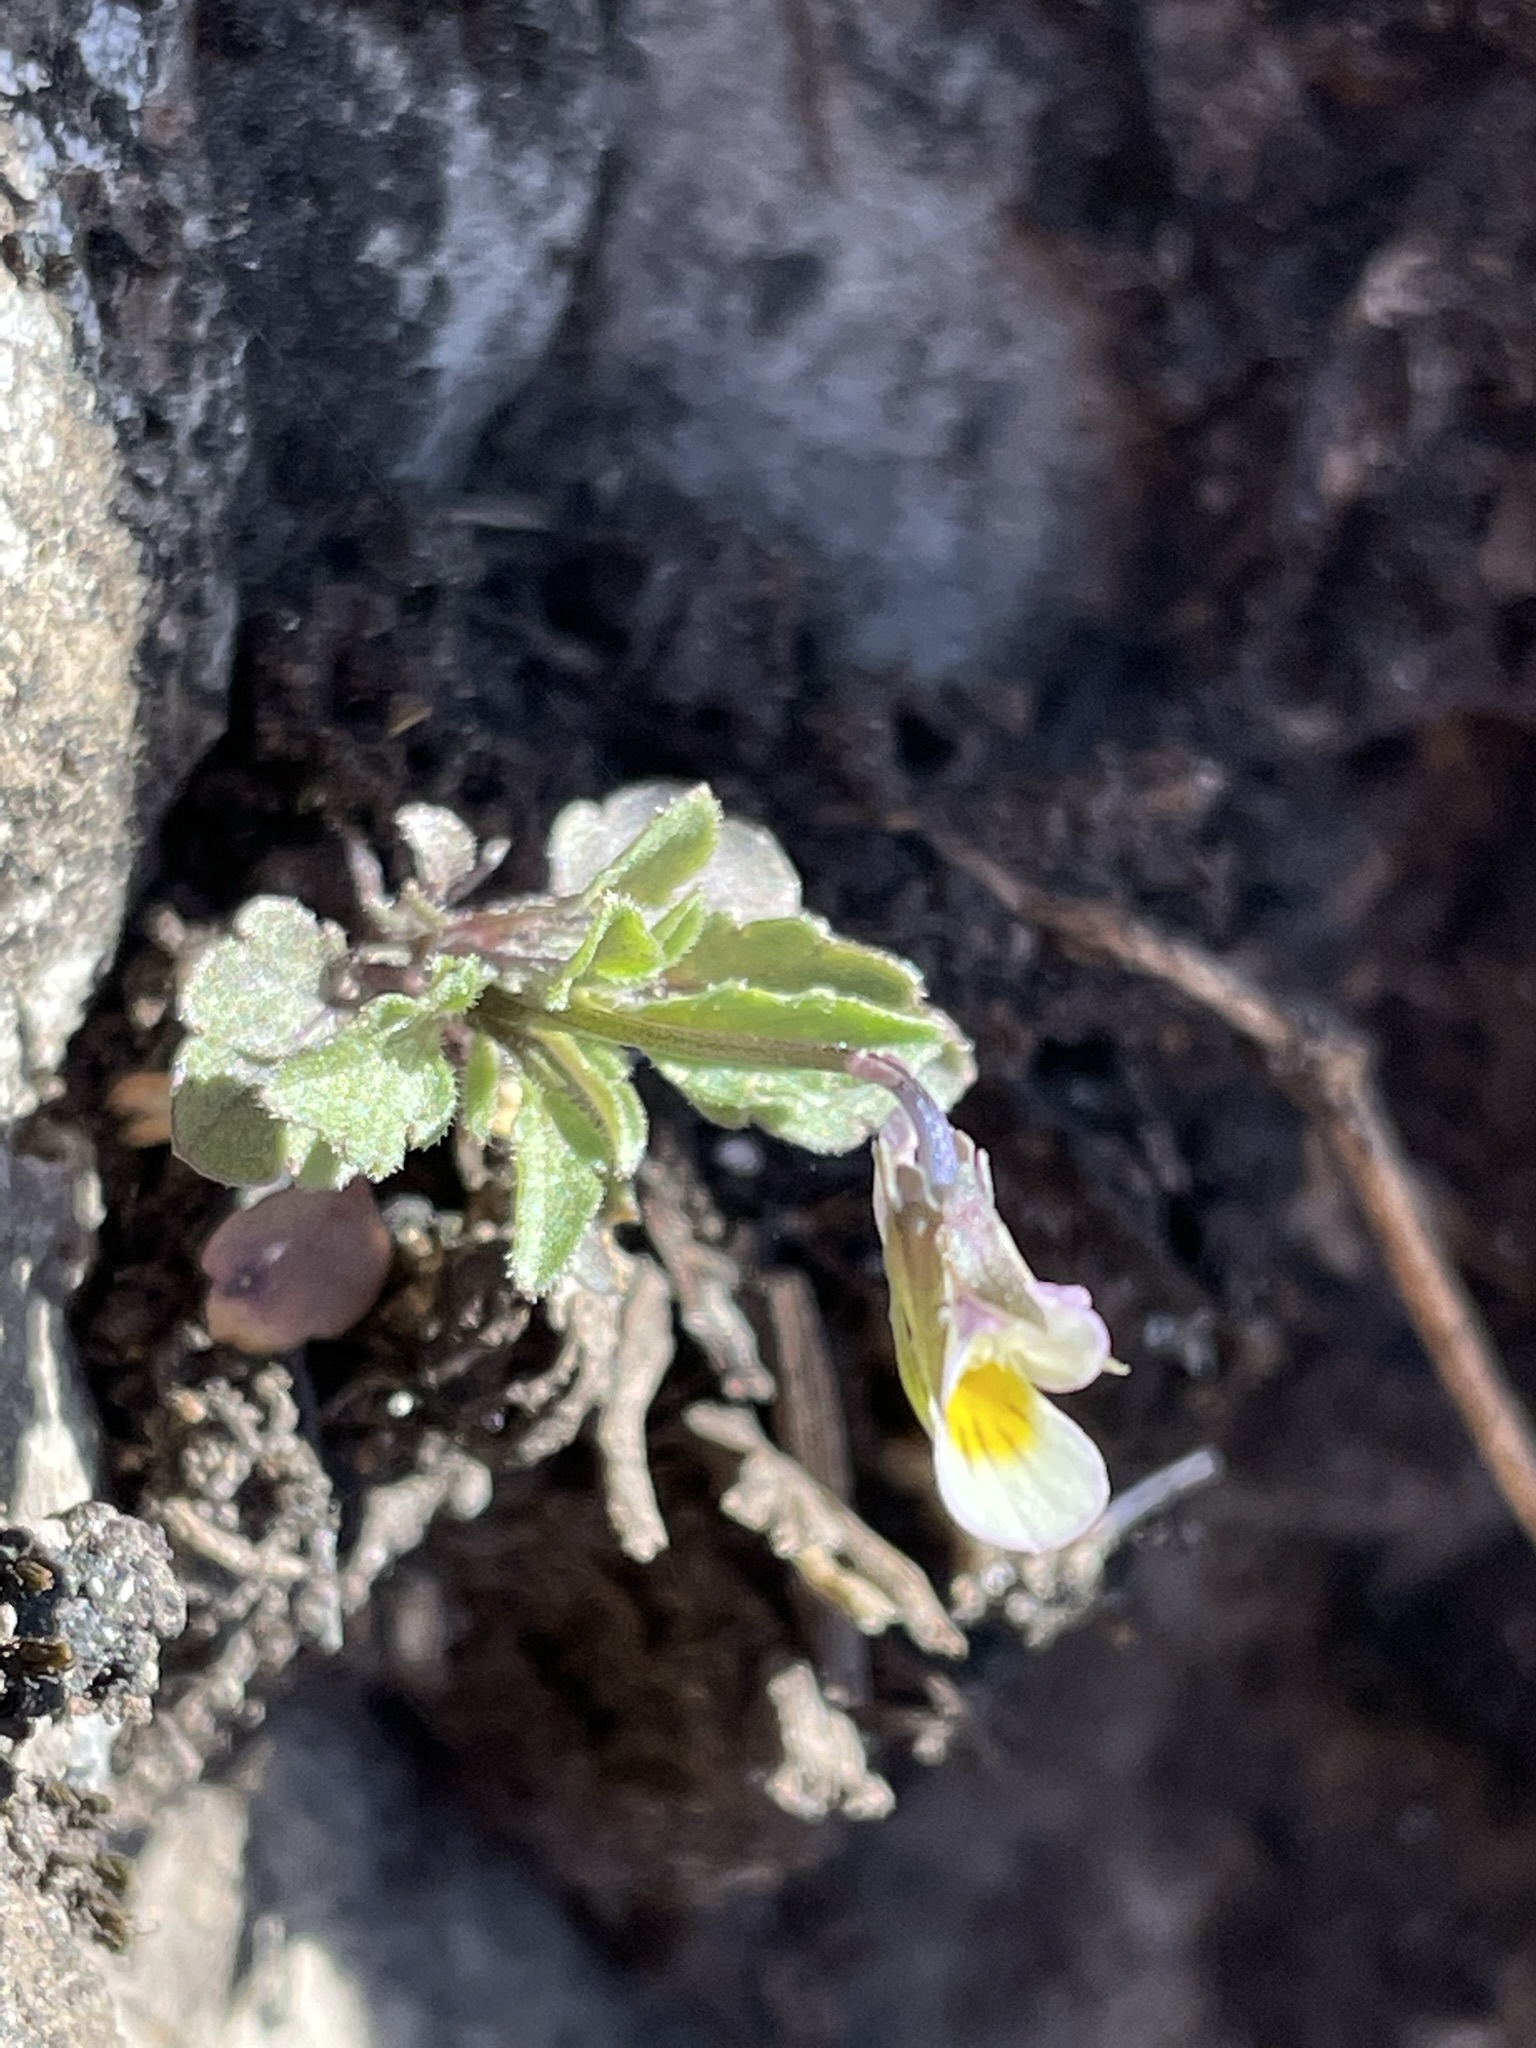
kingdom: Plantae
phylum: Tracheophyta
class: Magnoliopsida
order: Malpighiales
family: Violaceae
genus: Viola
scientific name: Viola arvensis
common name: Field pansy
